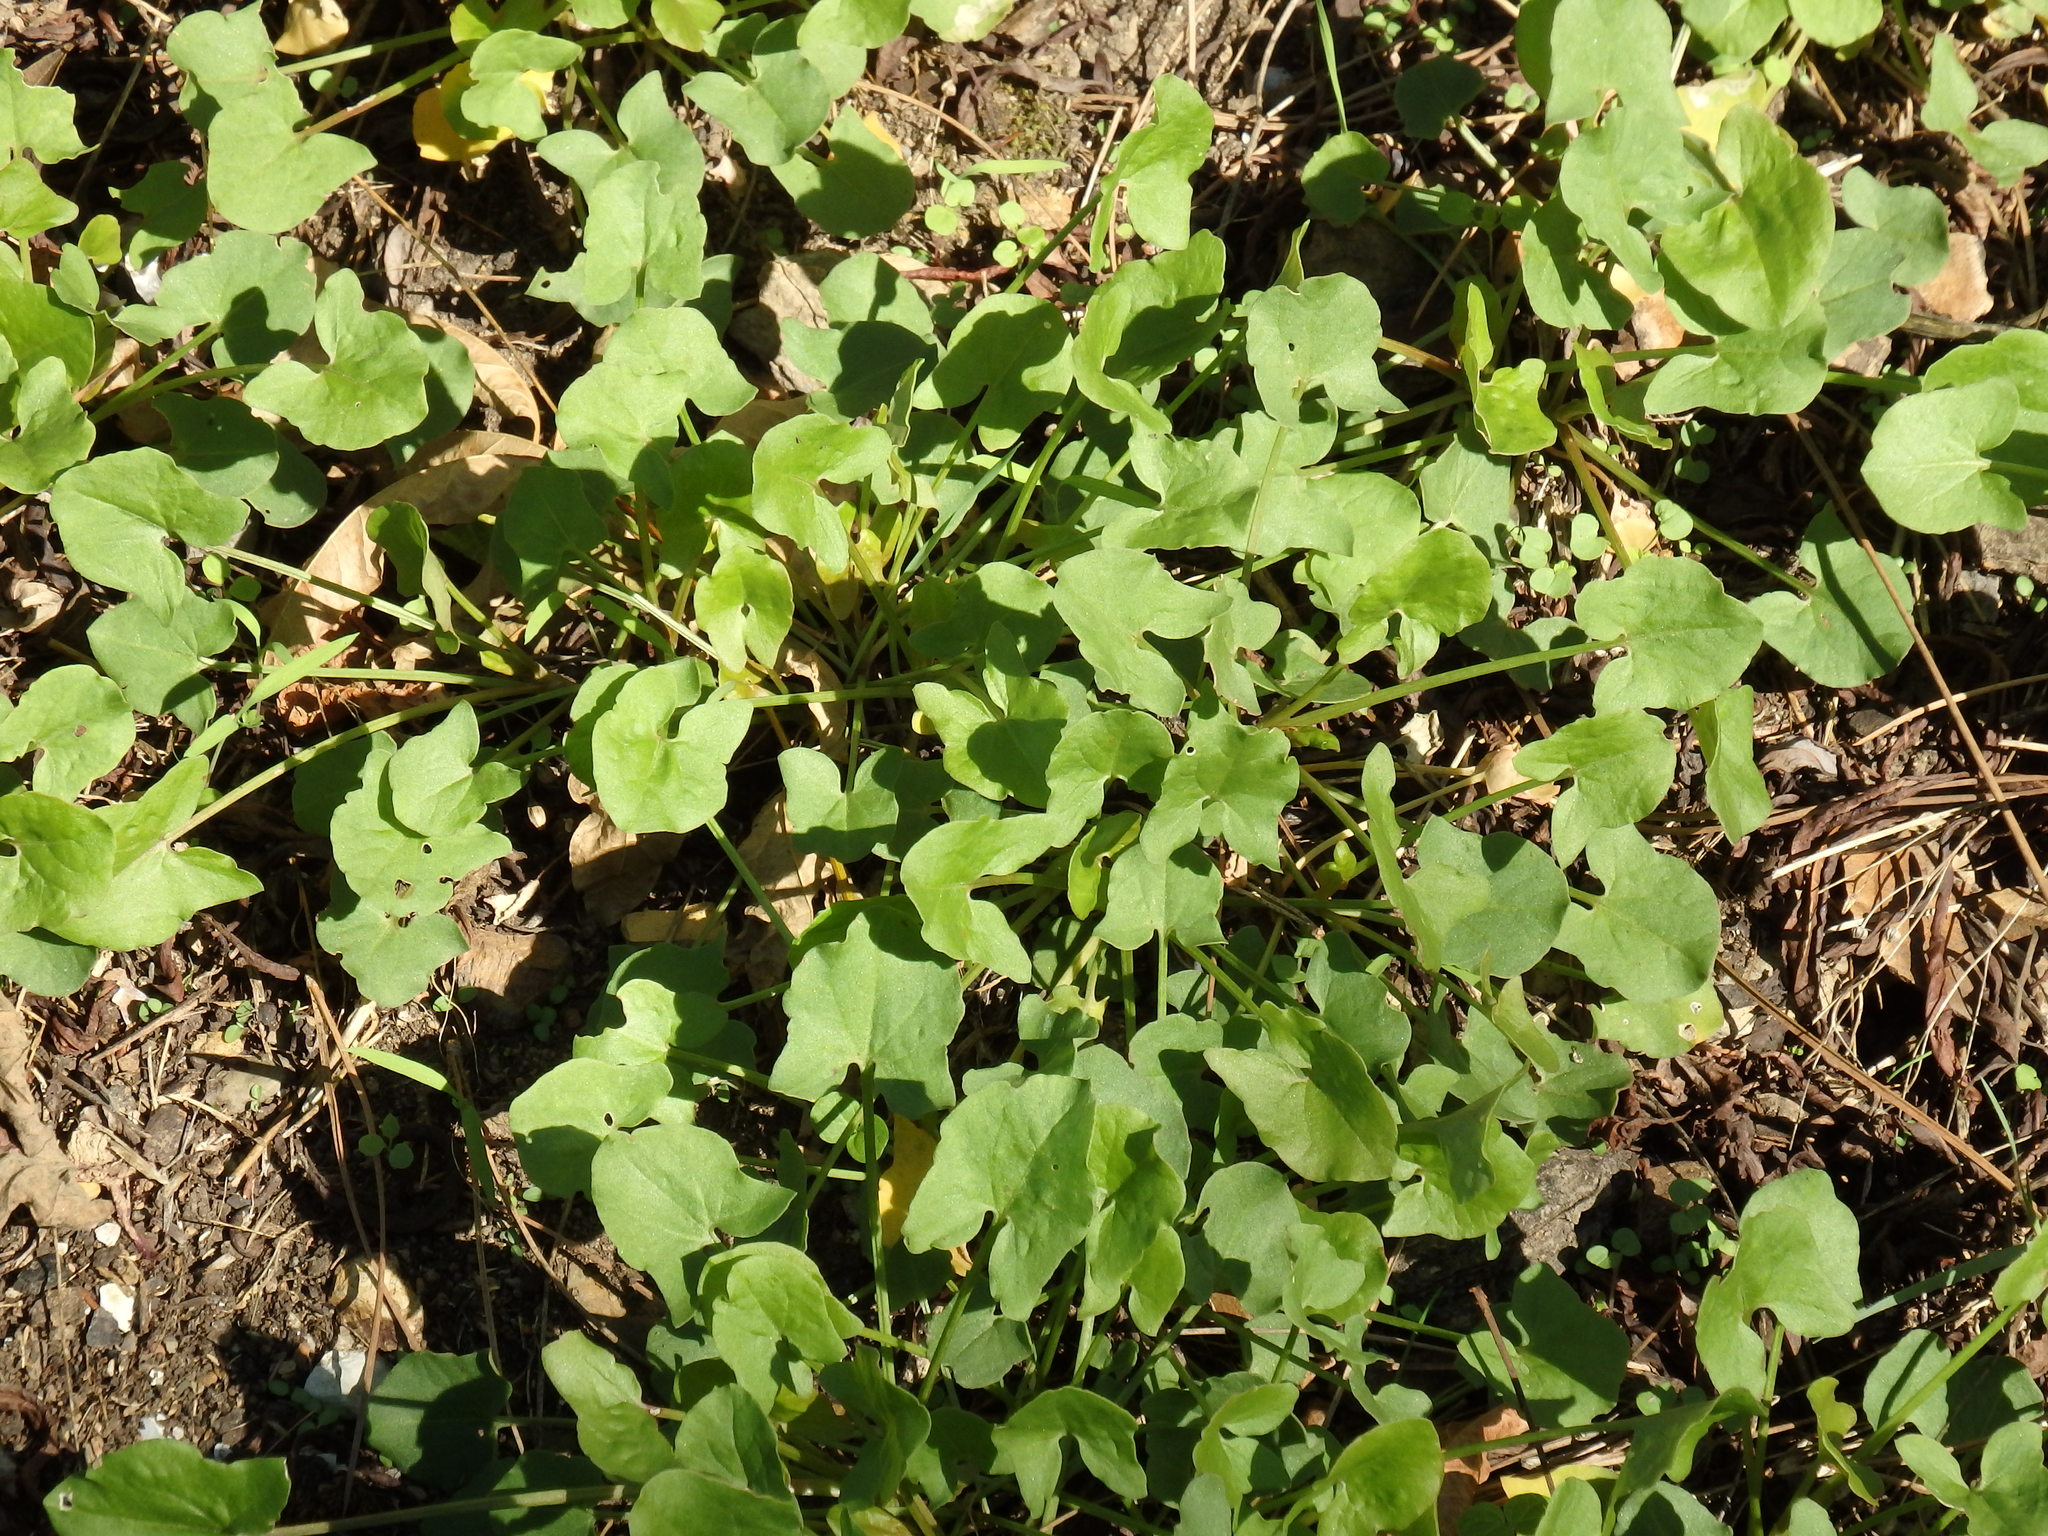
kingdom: Plantae
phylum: Tracheophyta
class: Magnoliopsida
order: Caryophyllales
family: Polygonaceae
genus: Rumex
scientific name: Rumex induratus
